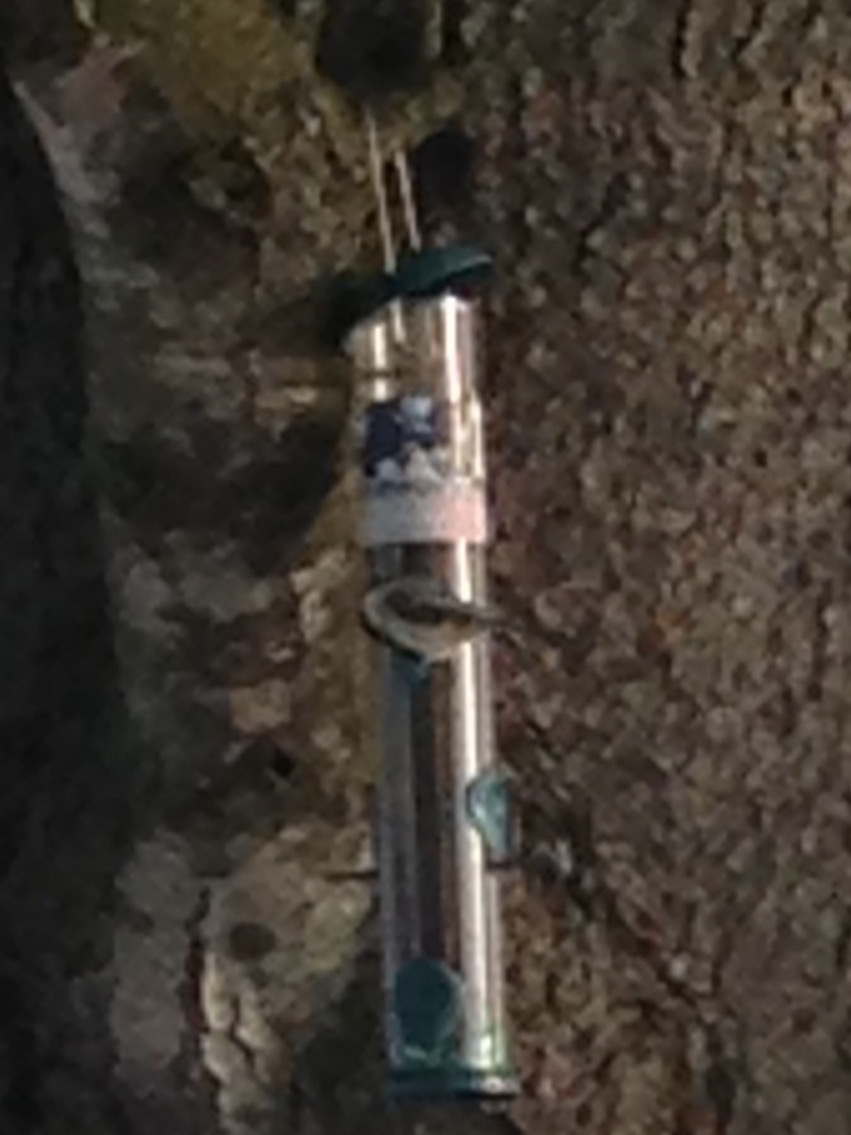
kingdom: Animalia
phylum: Chordata
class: Aves
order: Passeriformes
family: Paridae
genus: Poecile
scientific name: Poecile atricapillus
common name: Black-capped chickadee
